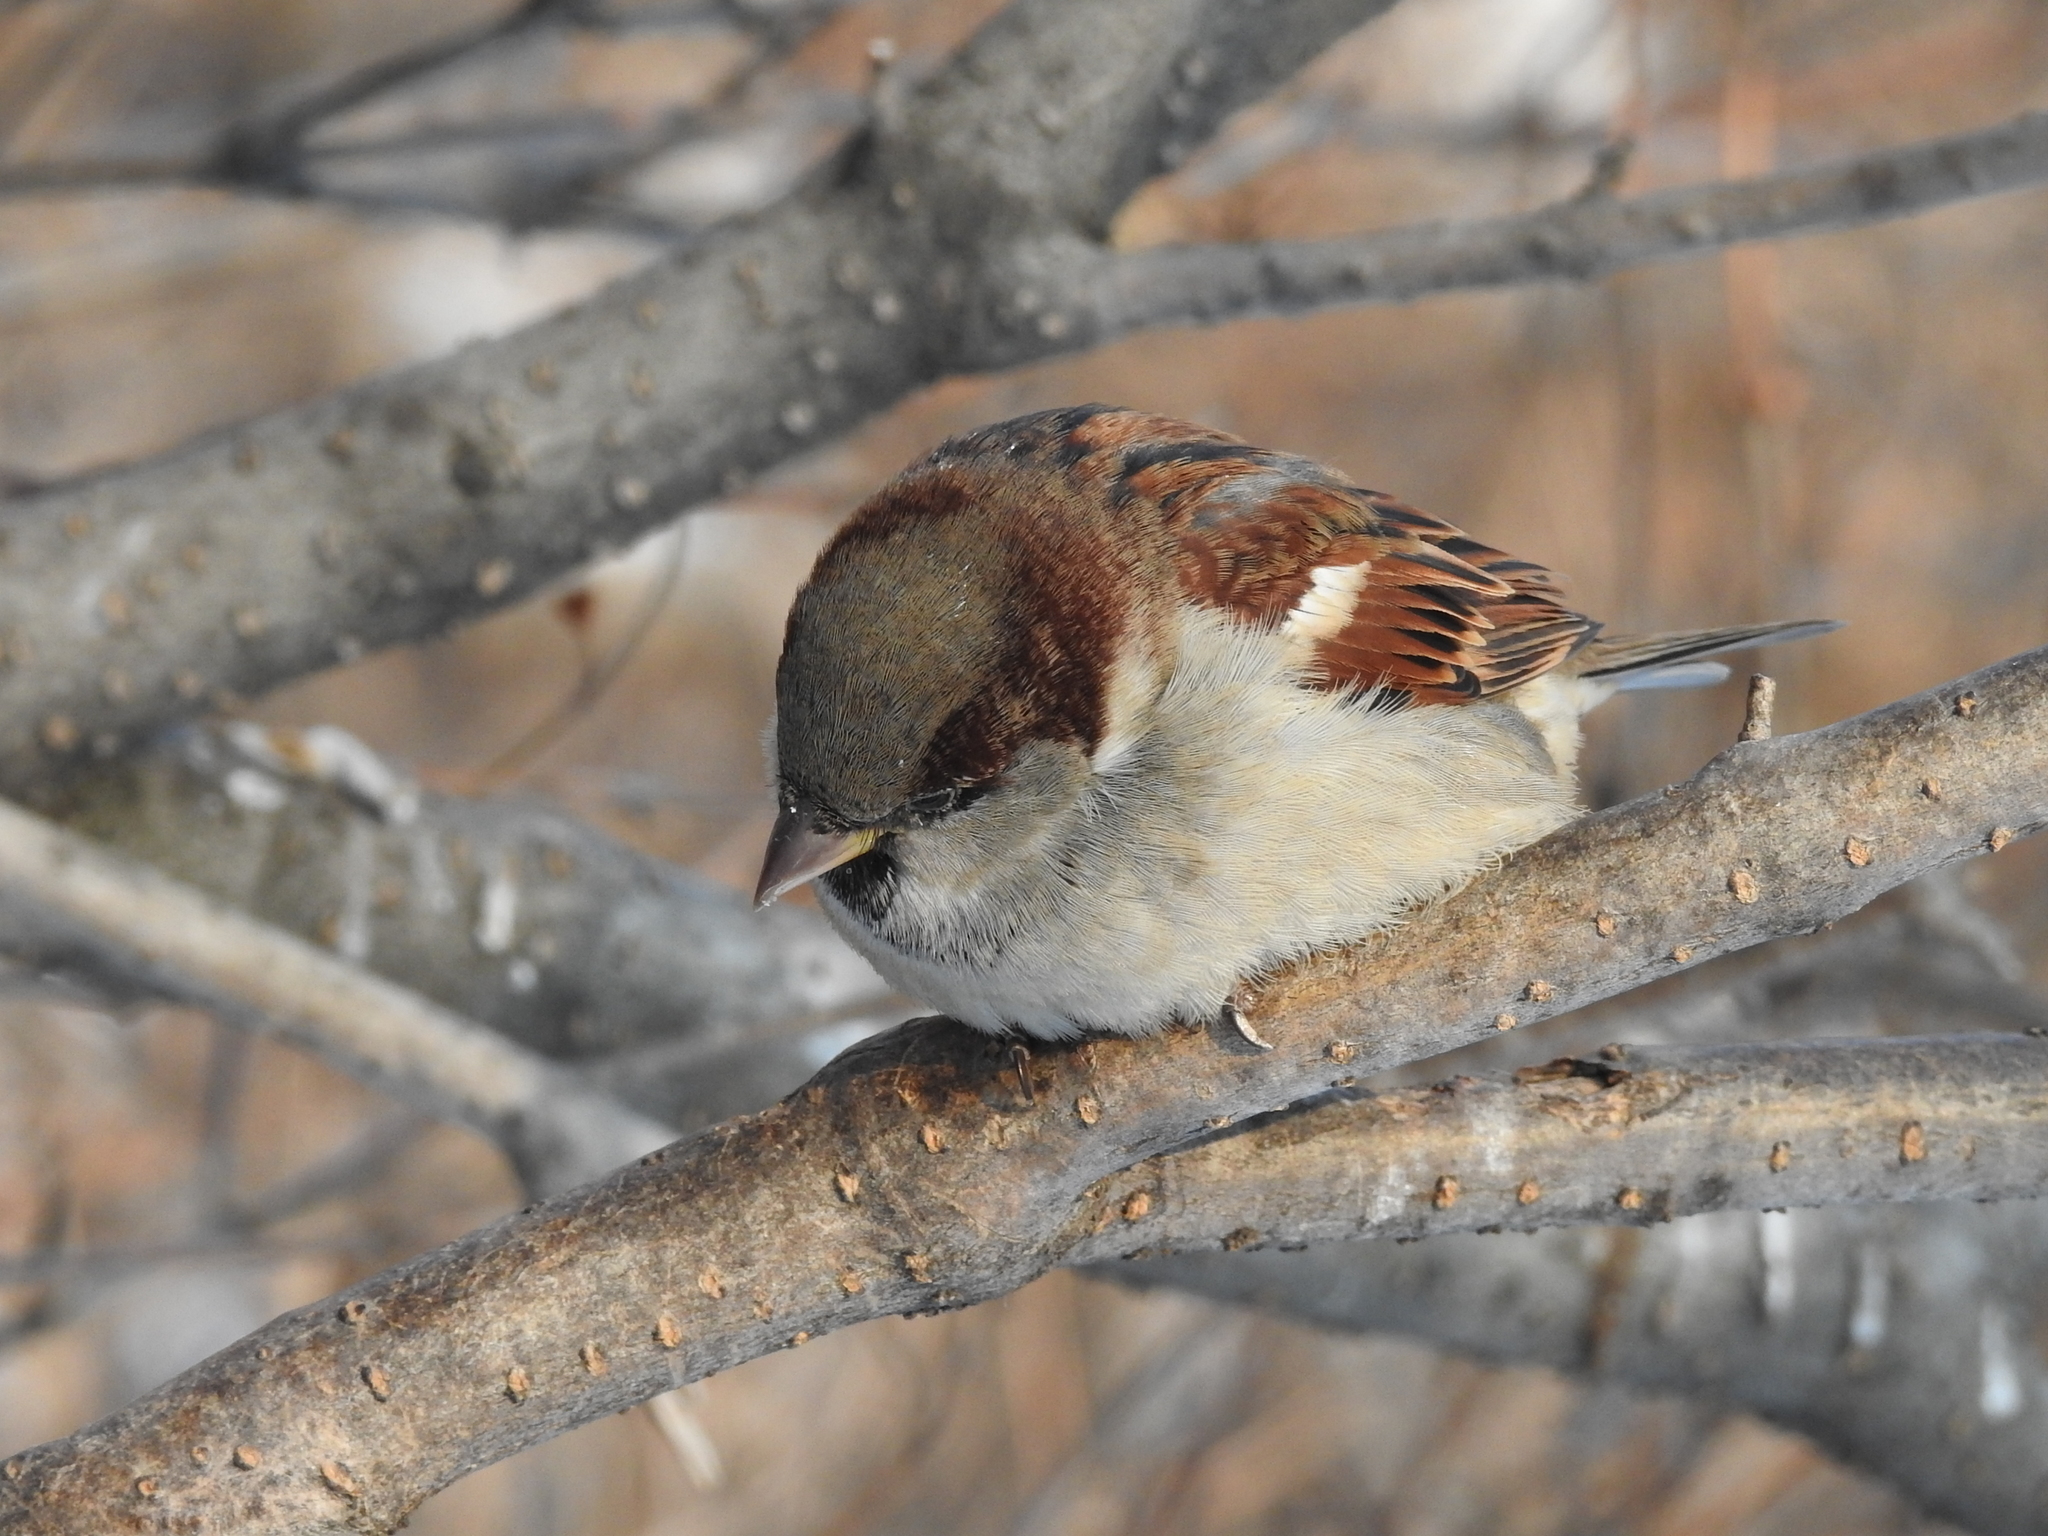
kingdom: Animalia
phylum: Chordata
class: Aves
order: Passeriformes
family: Passeridae
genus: Passer
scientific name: Passer domesticus
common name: House sparrow
